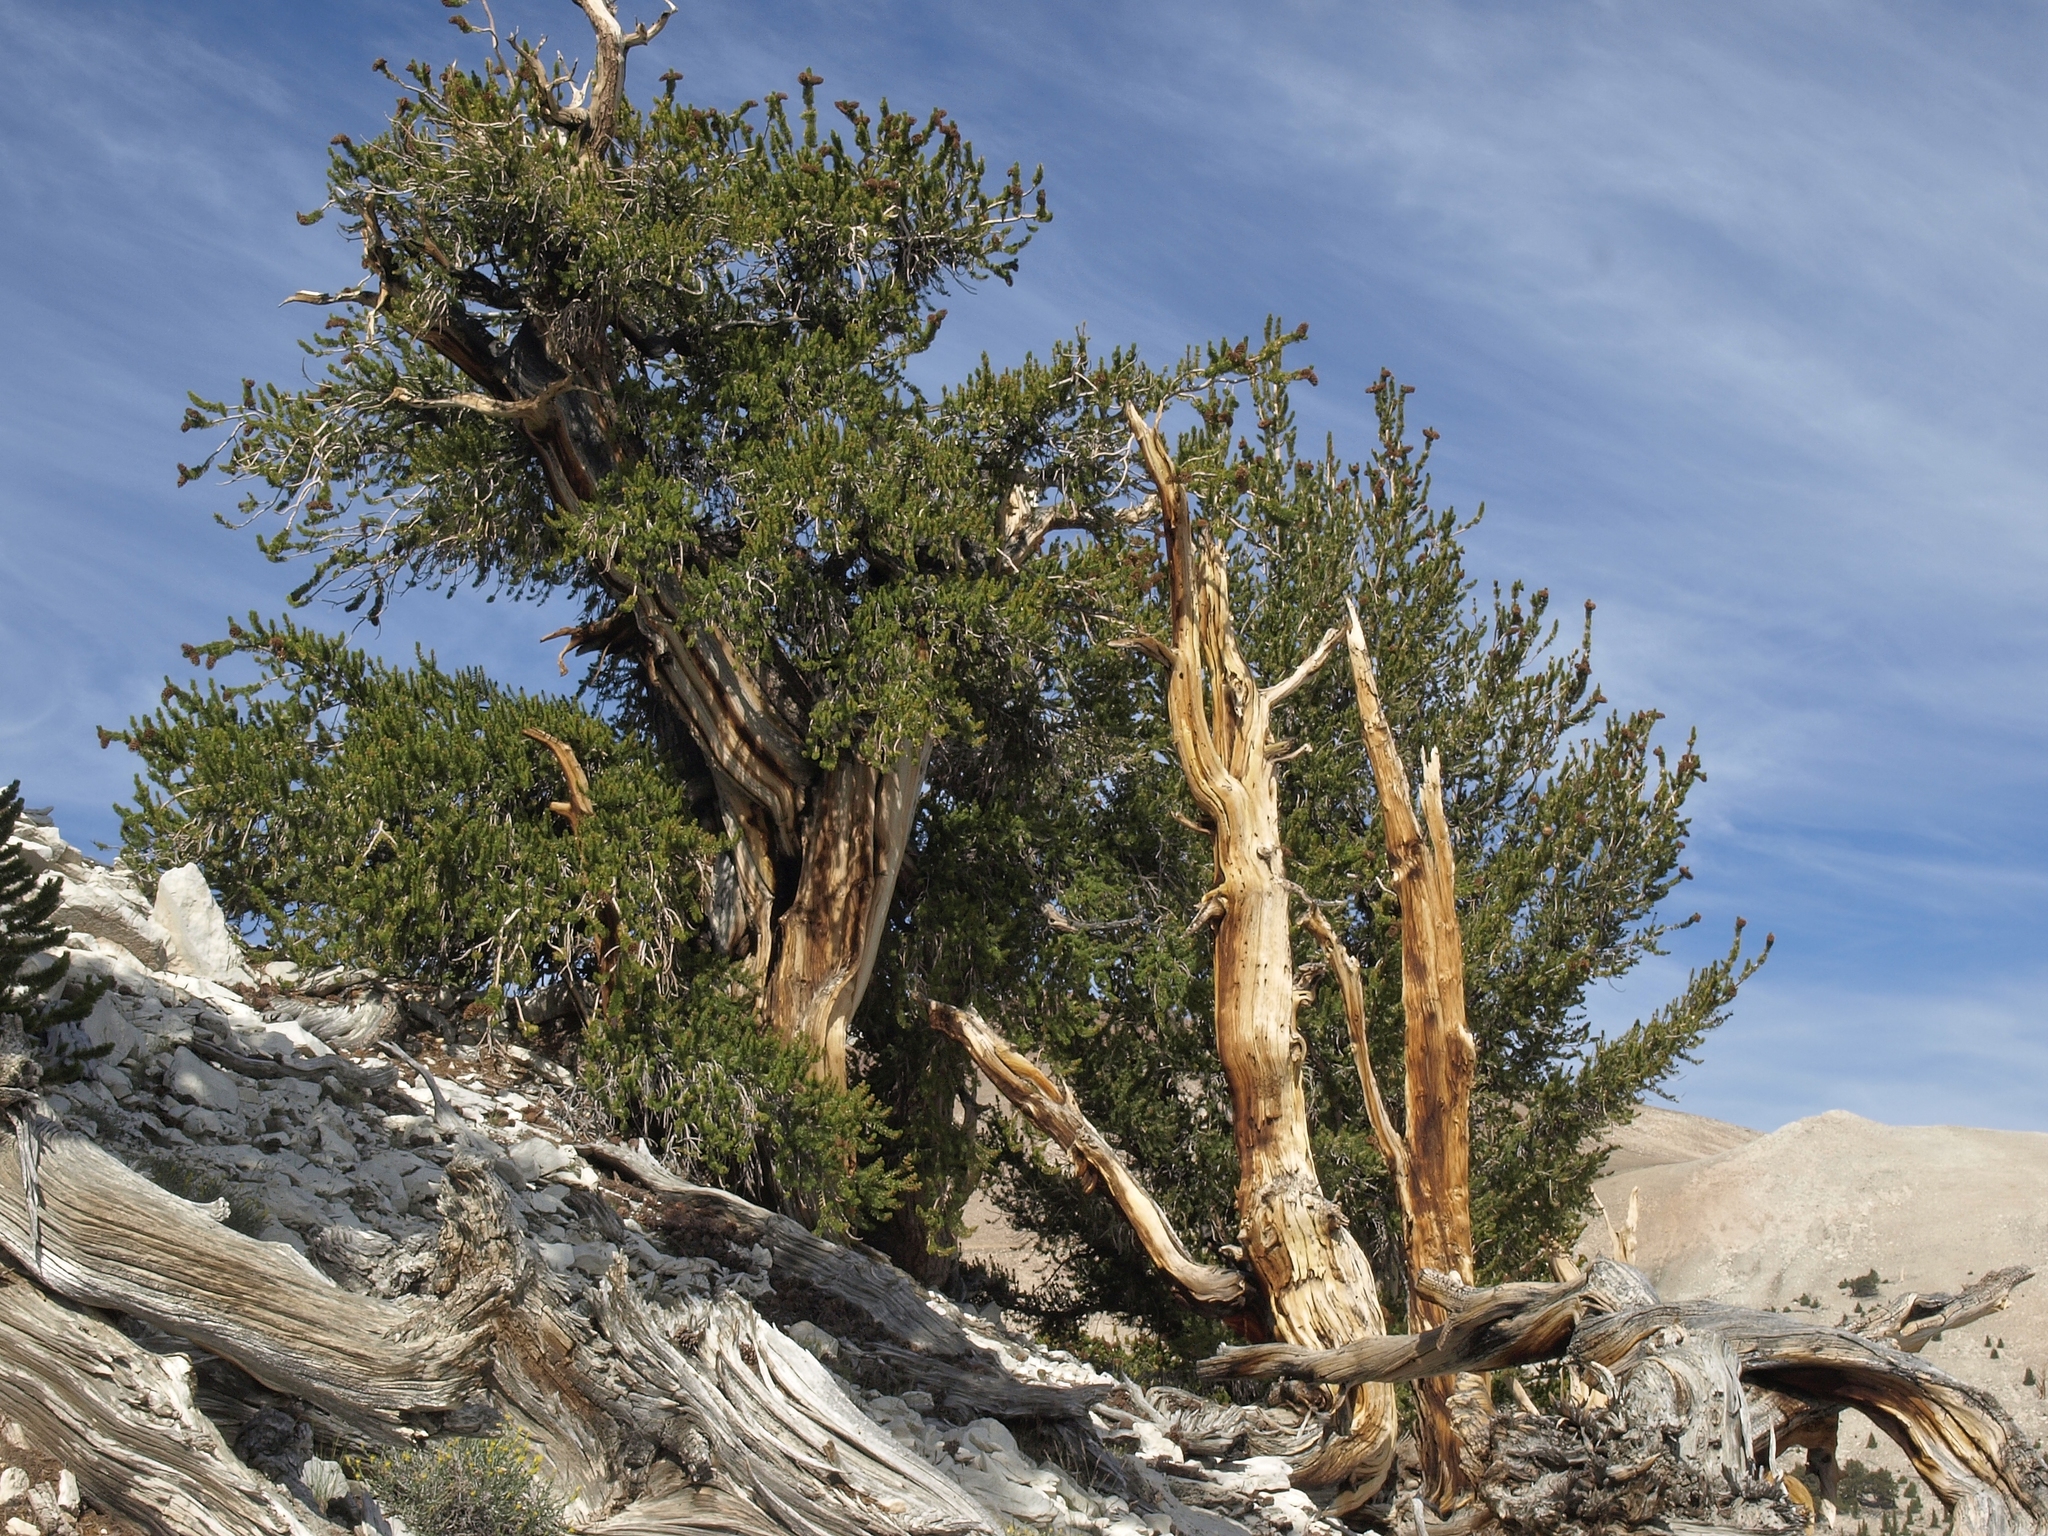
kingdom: Plantae
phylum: Tracheophyta
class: Pinopsida
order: Pinales
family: Pinaceae
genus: Pinus
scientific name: Pinus longaeva
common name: Intermountain bristlecone pine
